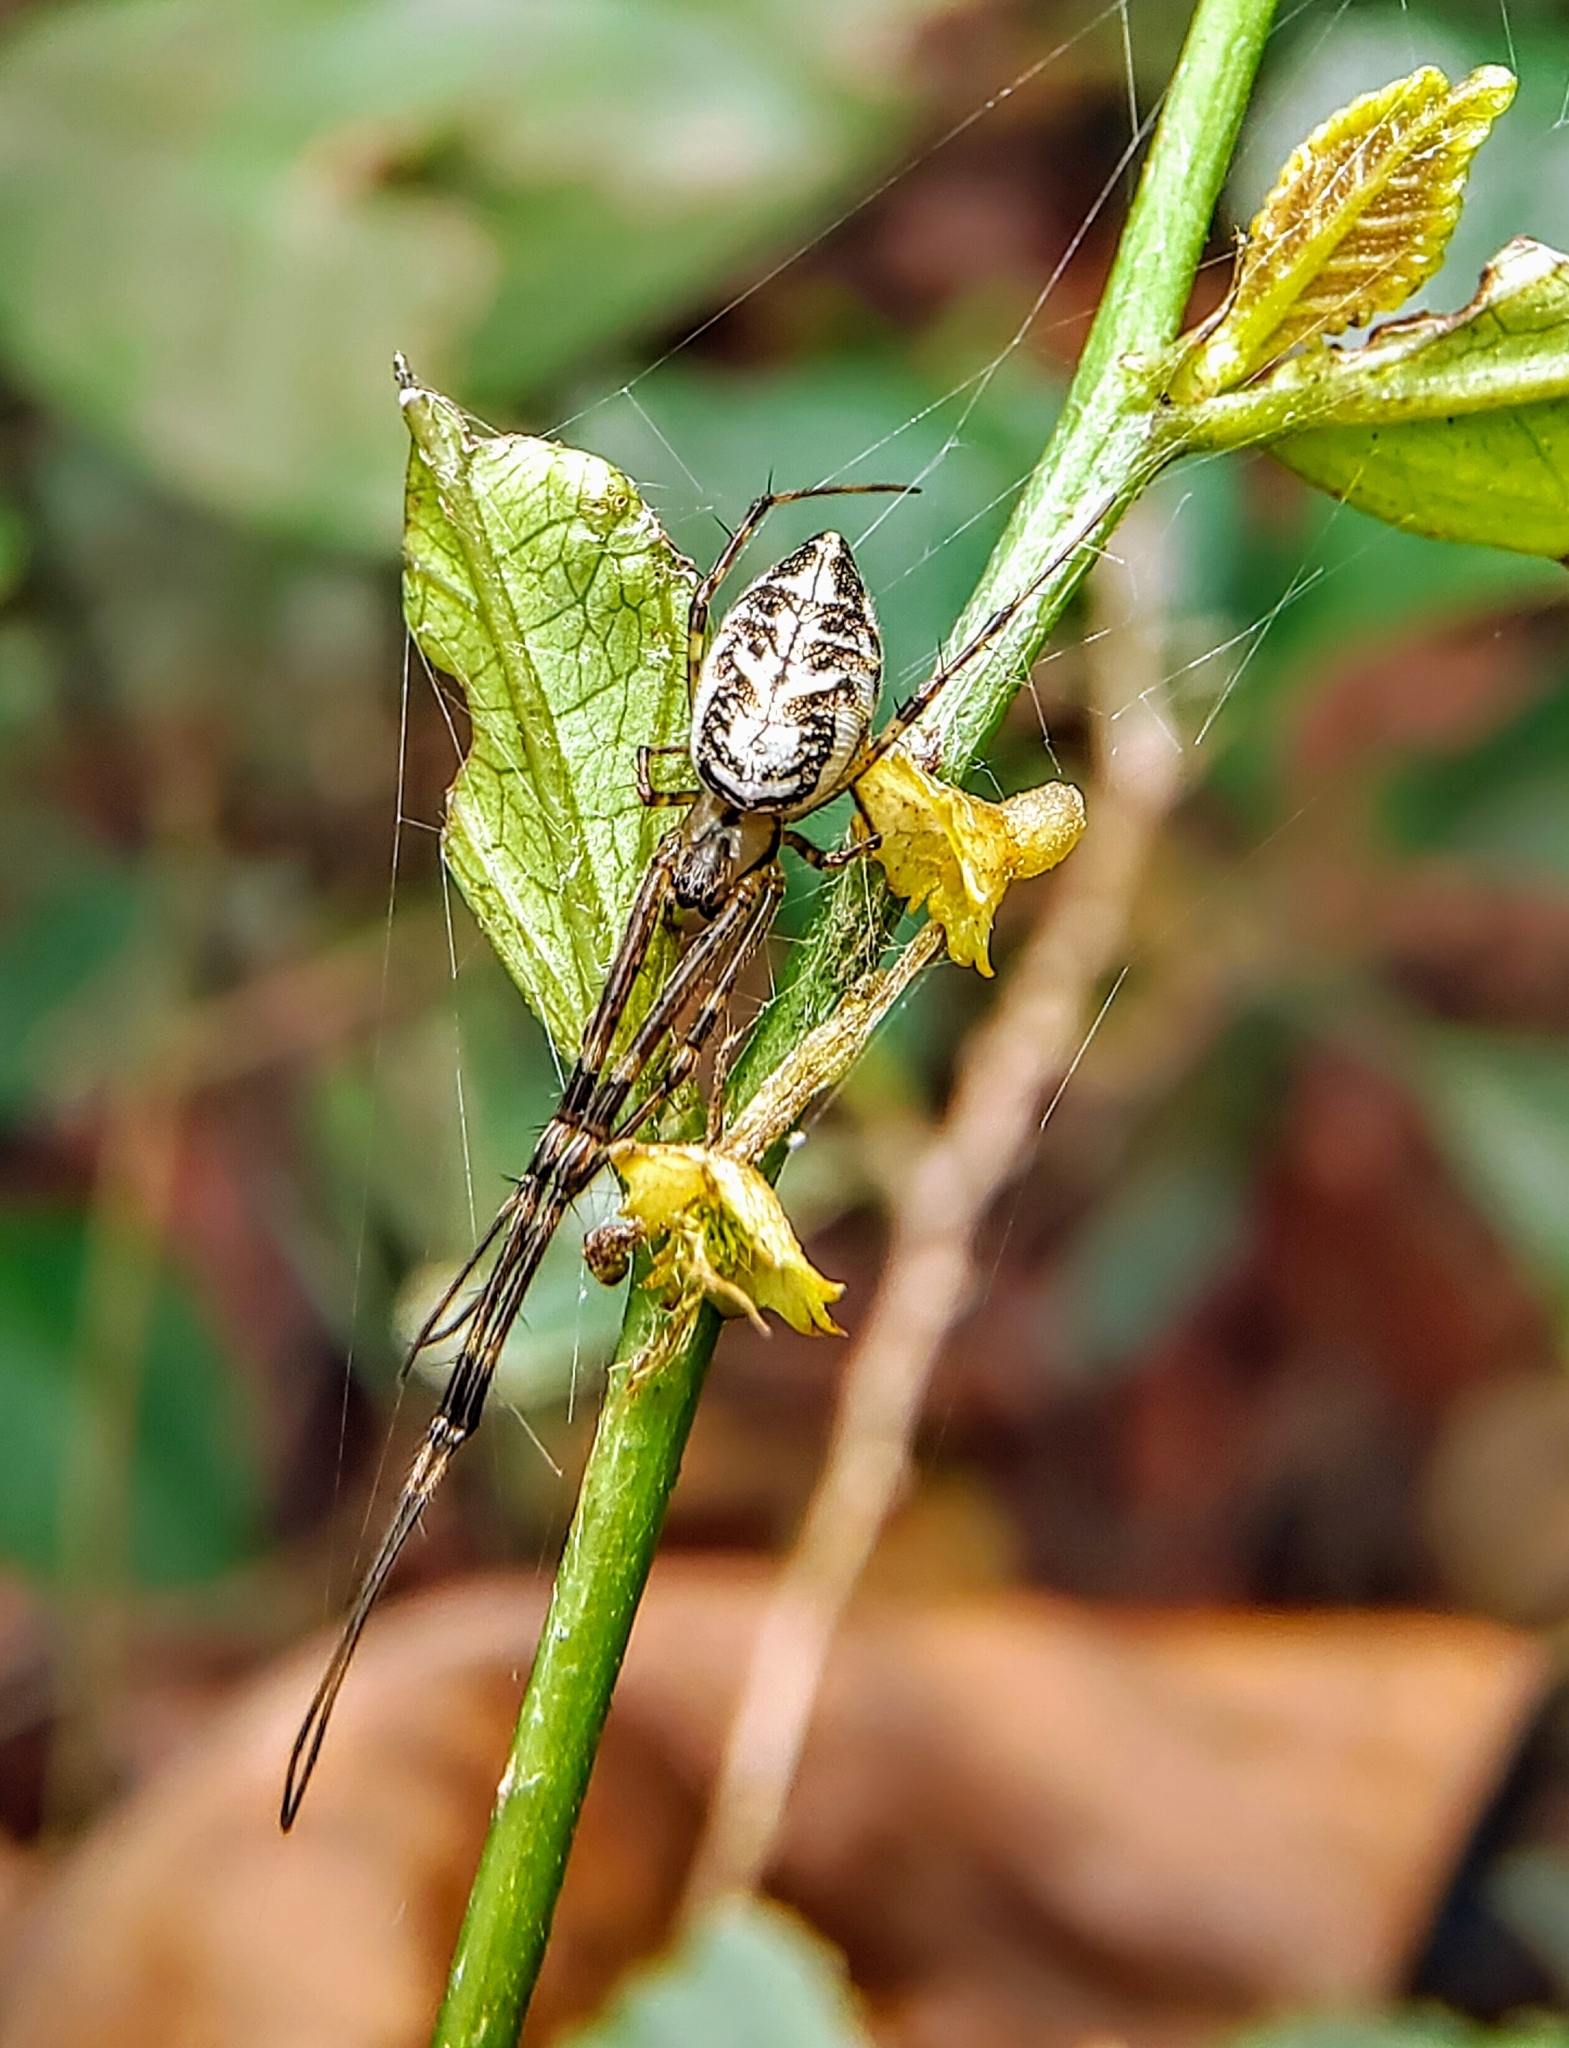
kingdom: Animalia
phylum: Arthropoda
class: Arachnida
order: Araneae
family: Tetragnathidae
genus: Tylorida
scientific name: Tylorida ventralis
